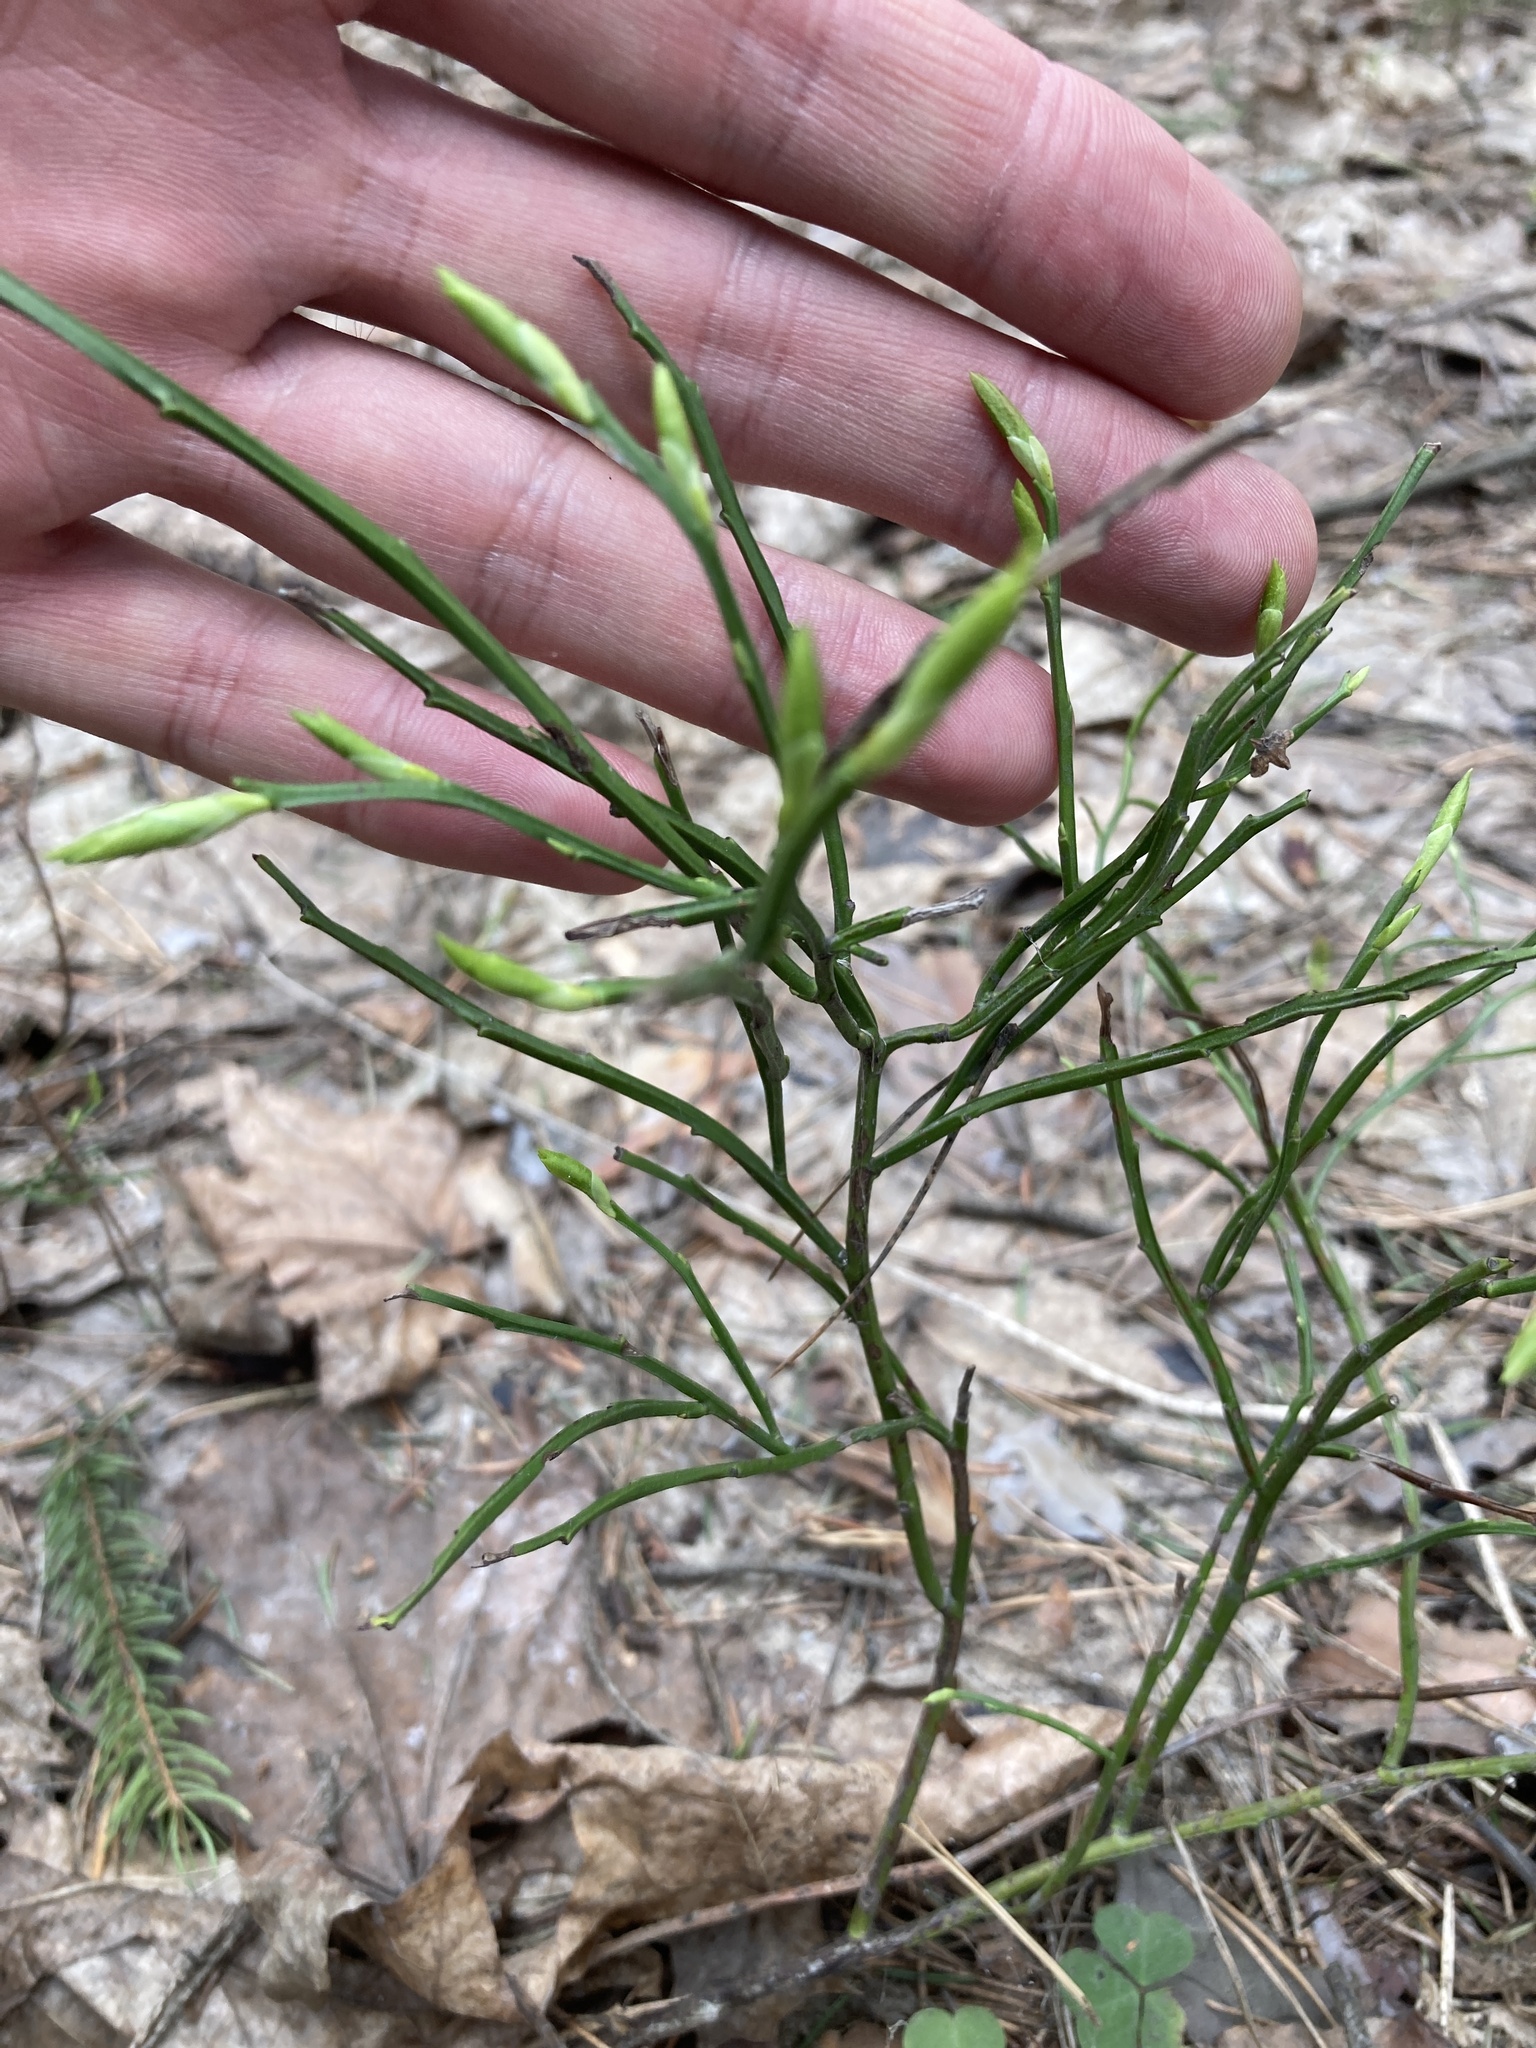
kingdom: Plantae
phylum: Tracheophyta
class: Magnoliopsida
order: Ericales
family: Ericaceae
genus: Vaccinium
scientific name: Vaccinium myrtillus
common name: Bilberry
